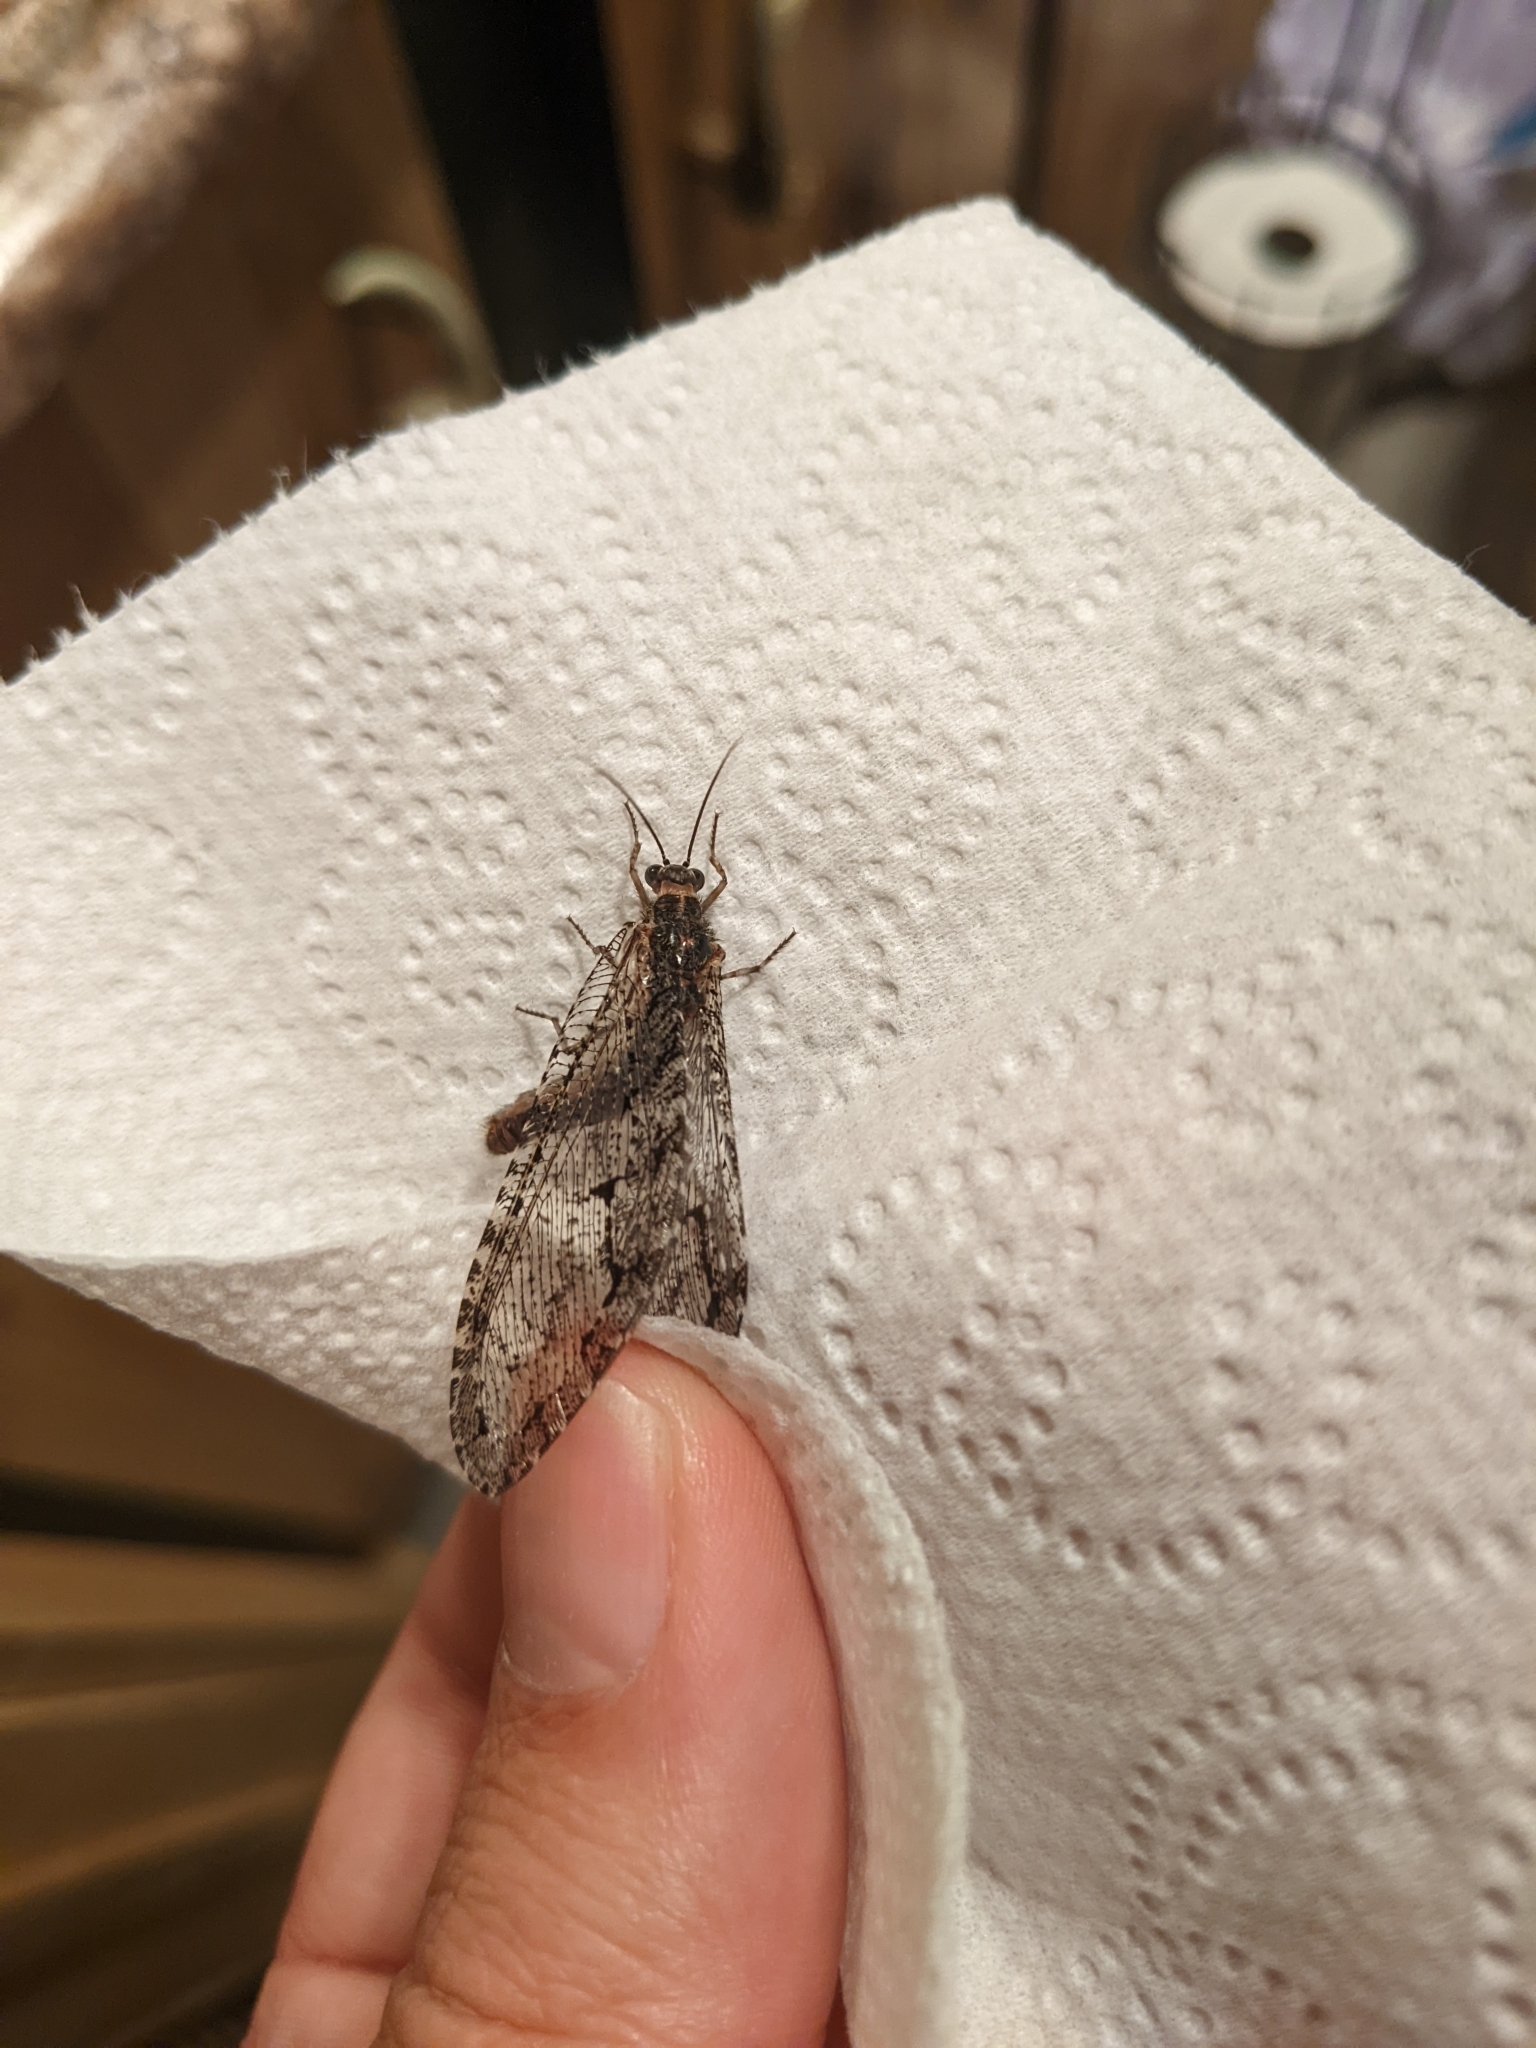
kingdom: Animalia
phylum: Arthropoda
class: Insecta
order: Neuroptera
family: Ithonidae
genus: Polystoechotes
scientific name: Polystoechotes punctata
